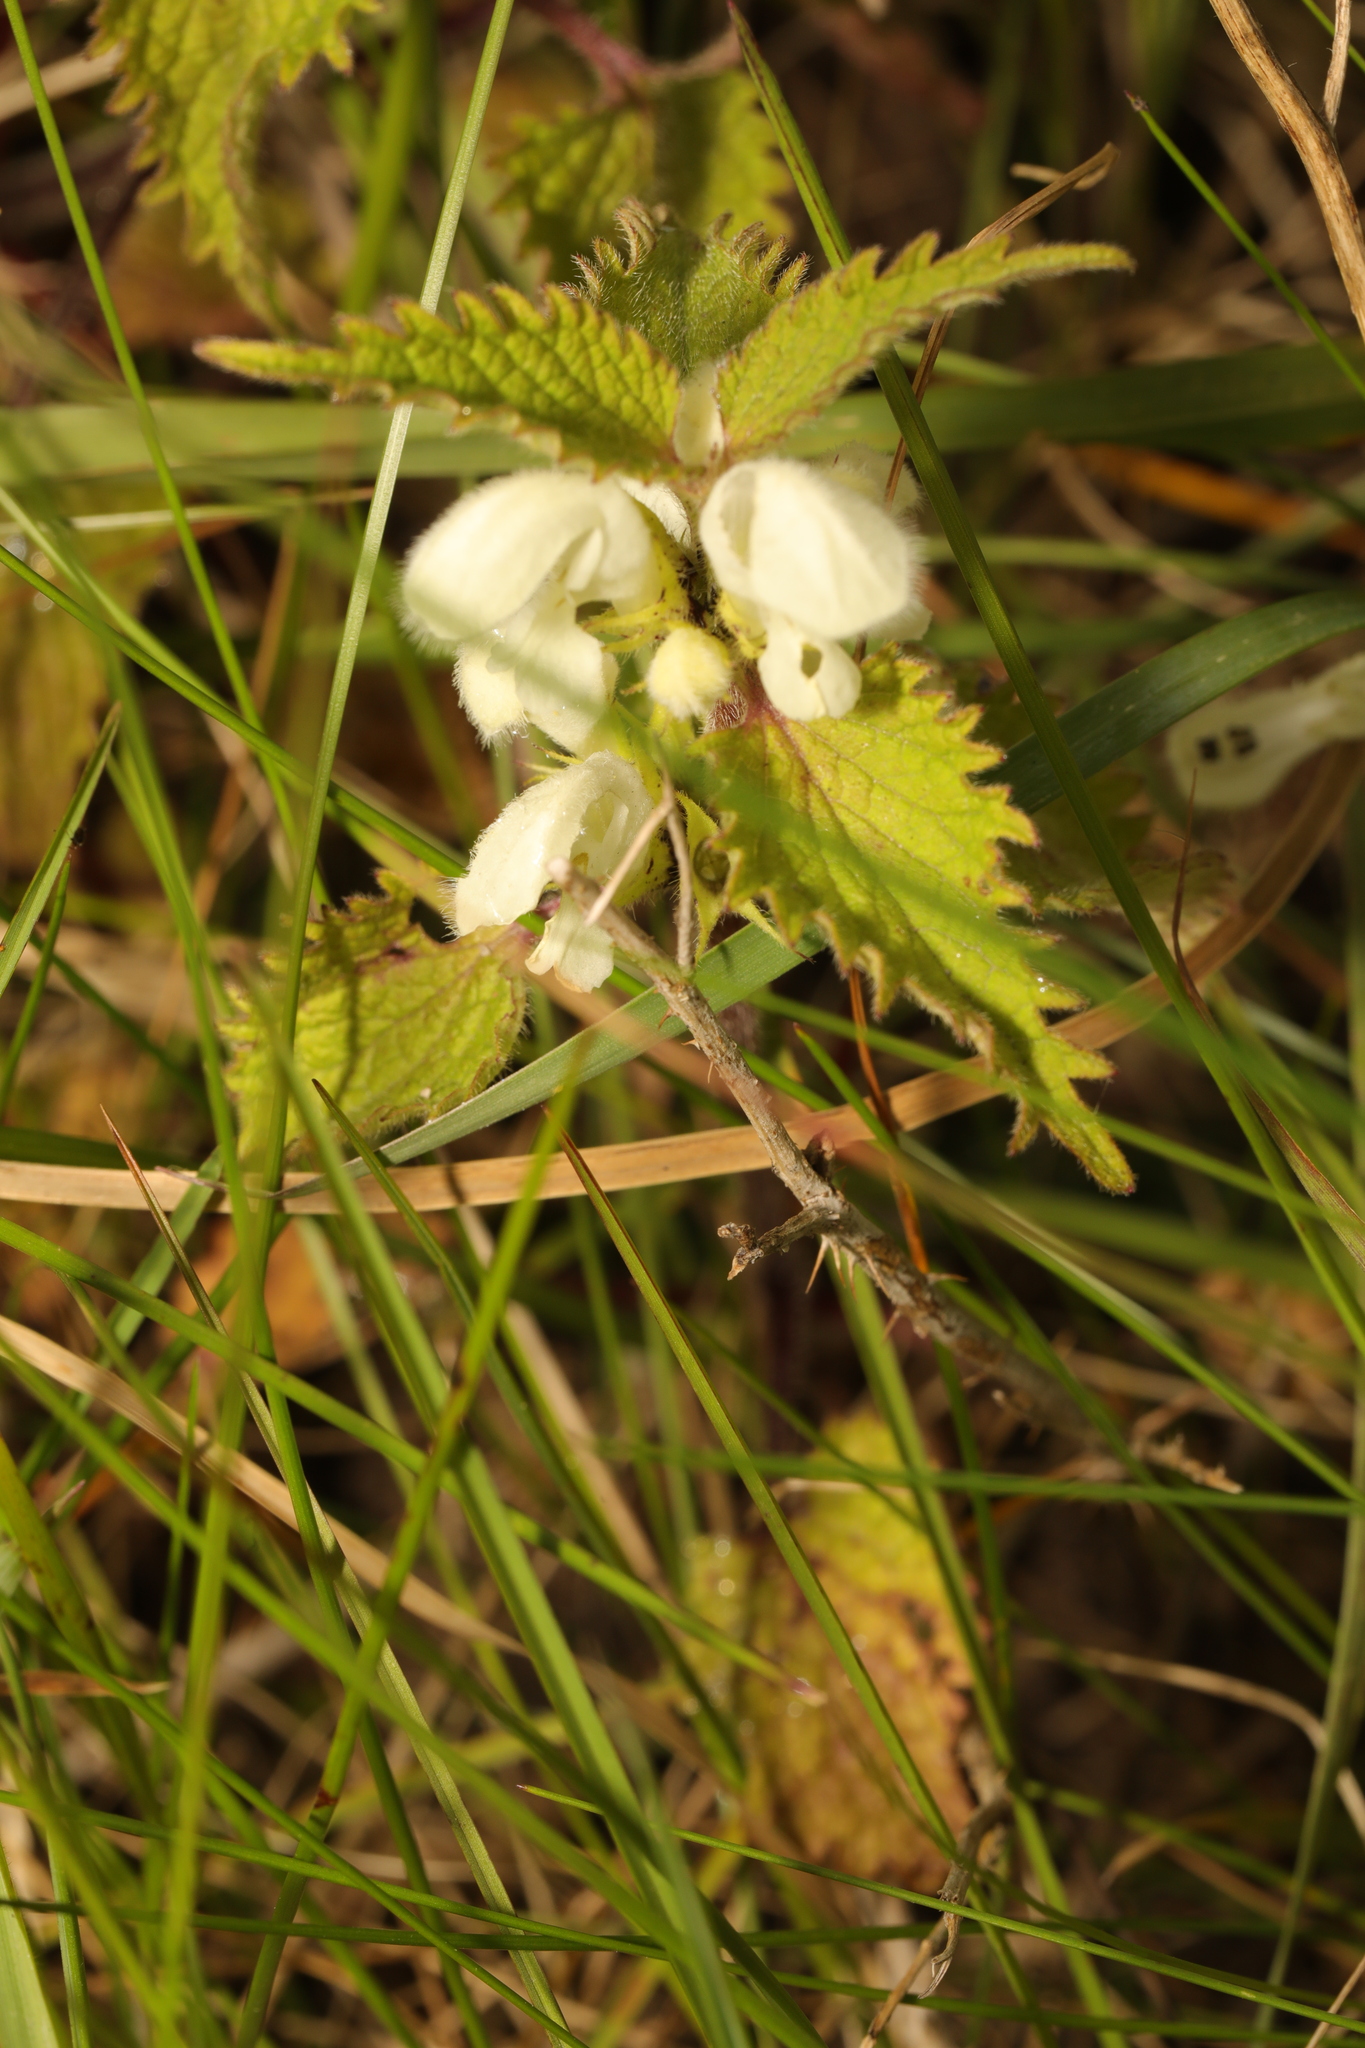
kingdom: Plantae
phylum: Tracheophyta
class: Magnoliopsida
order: Lamiales
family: Lamiaceae
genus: Lamium
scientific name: Lamium album
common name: White dead-nettle
